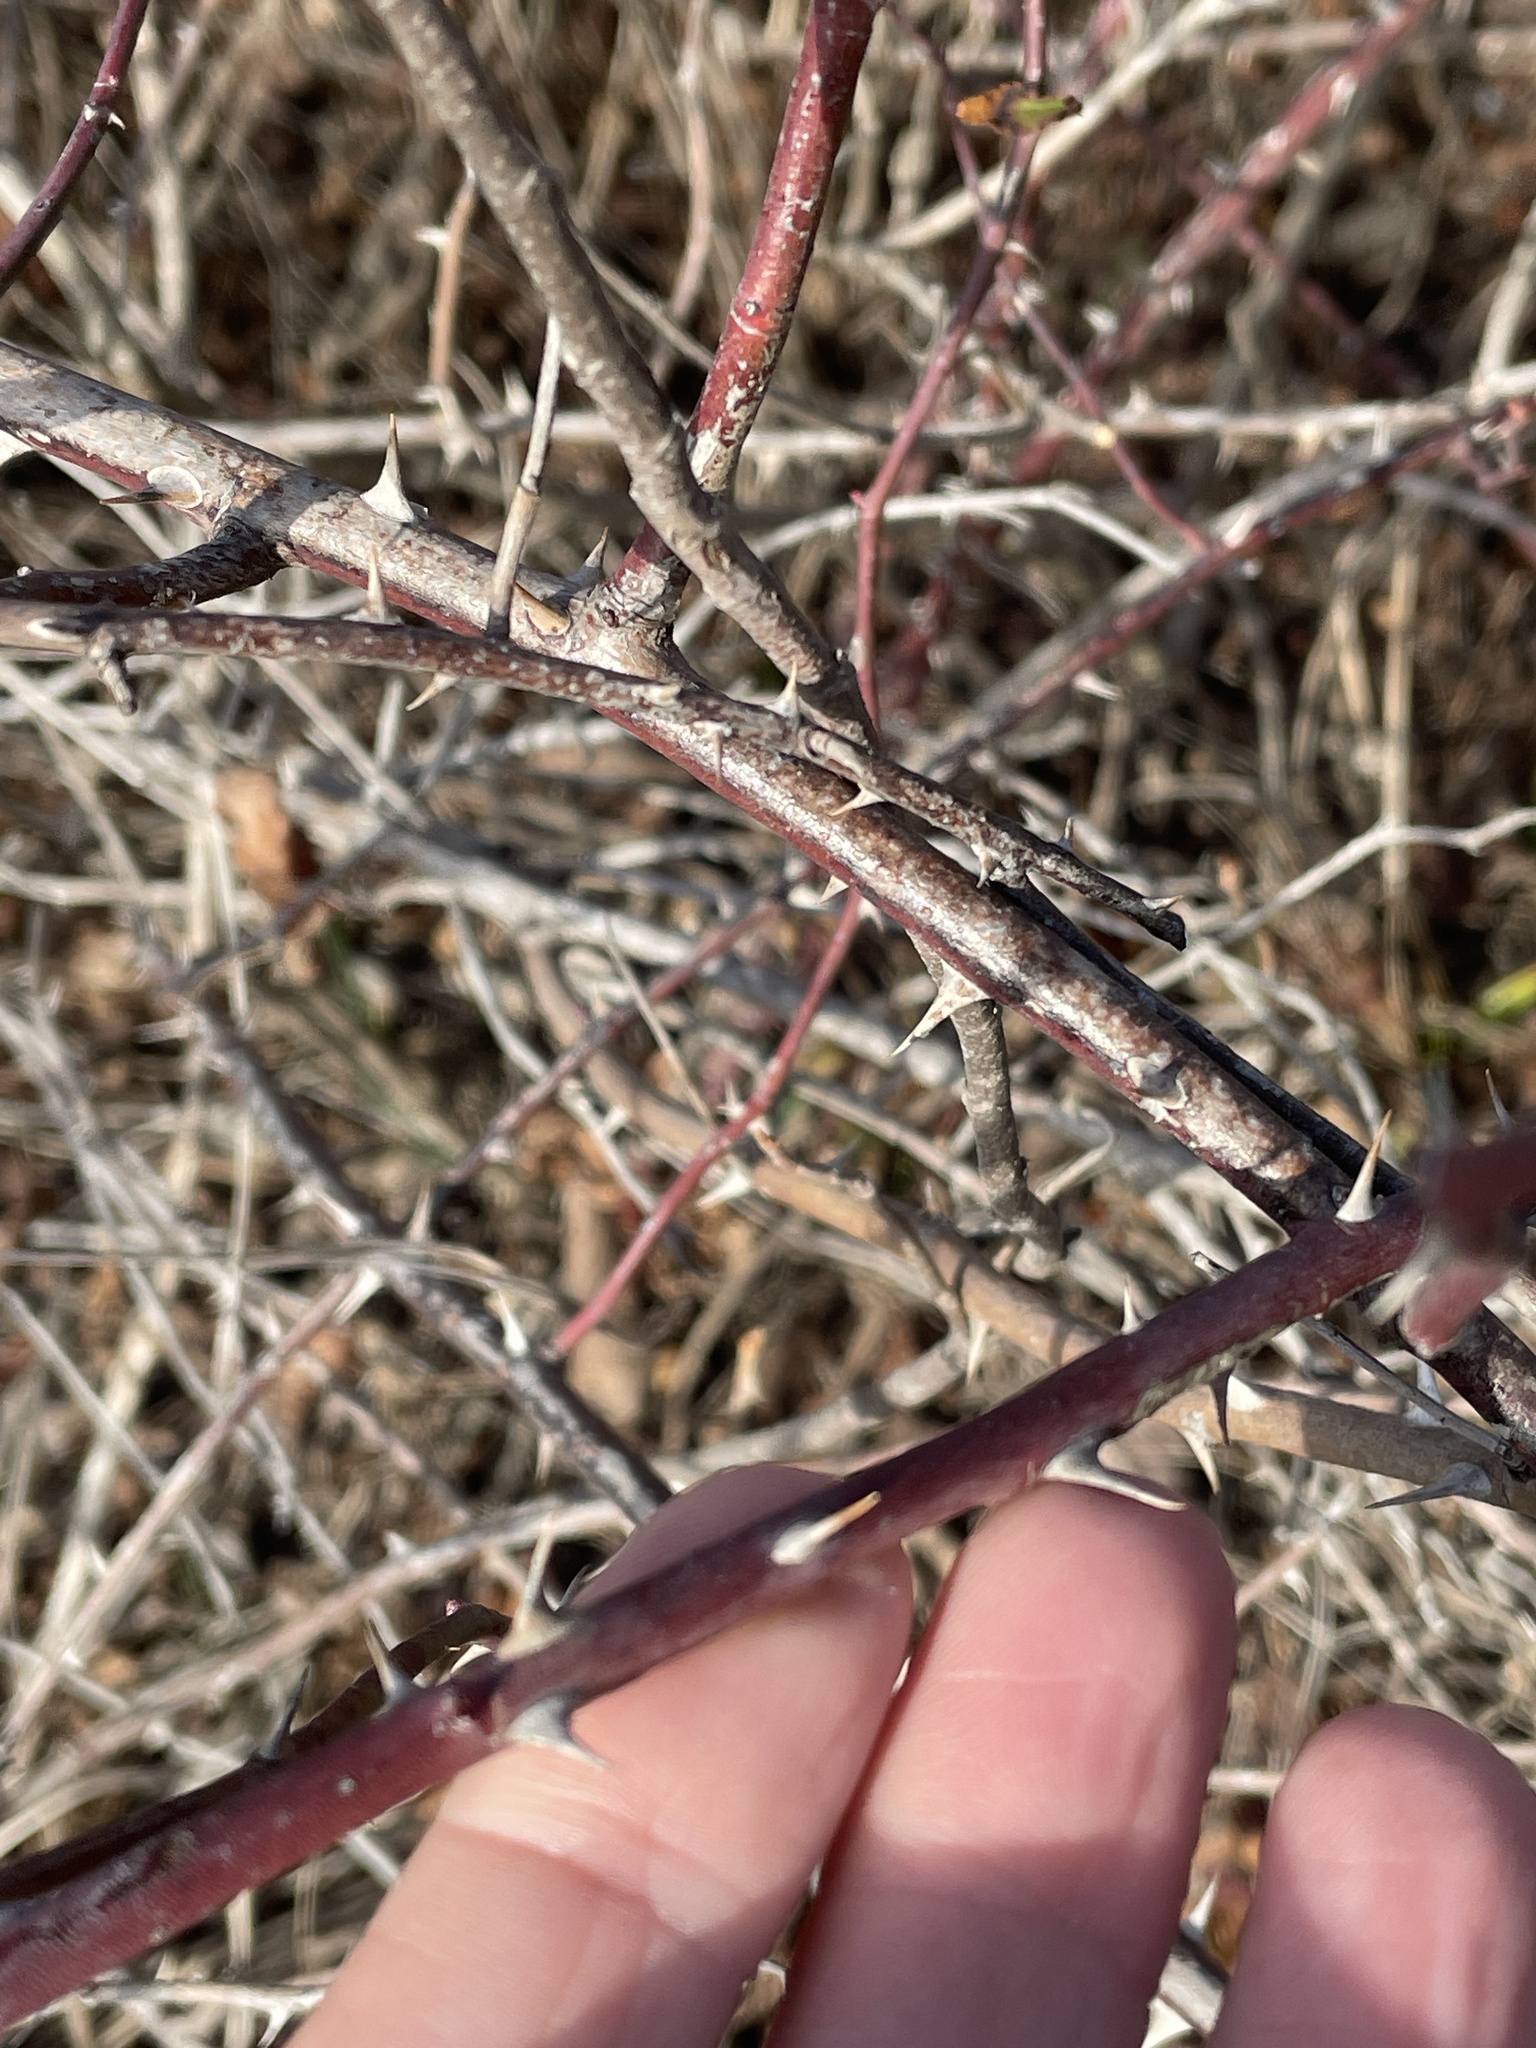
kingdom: Plantae
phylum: Tracheophyta
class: Magnoliopsida
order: Rosales
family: Rosaceae
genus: Rosa
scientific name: Rosa multiflora
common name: Multiflora rose
